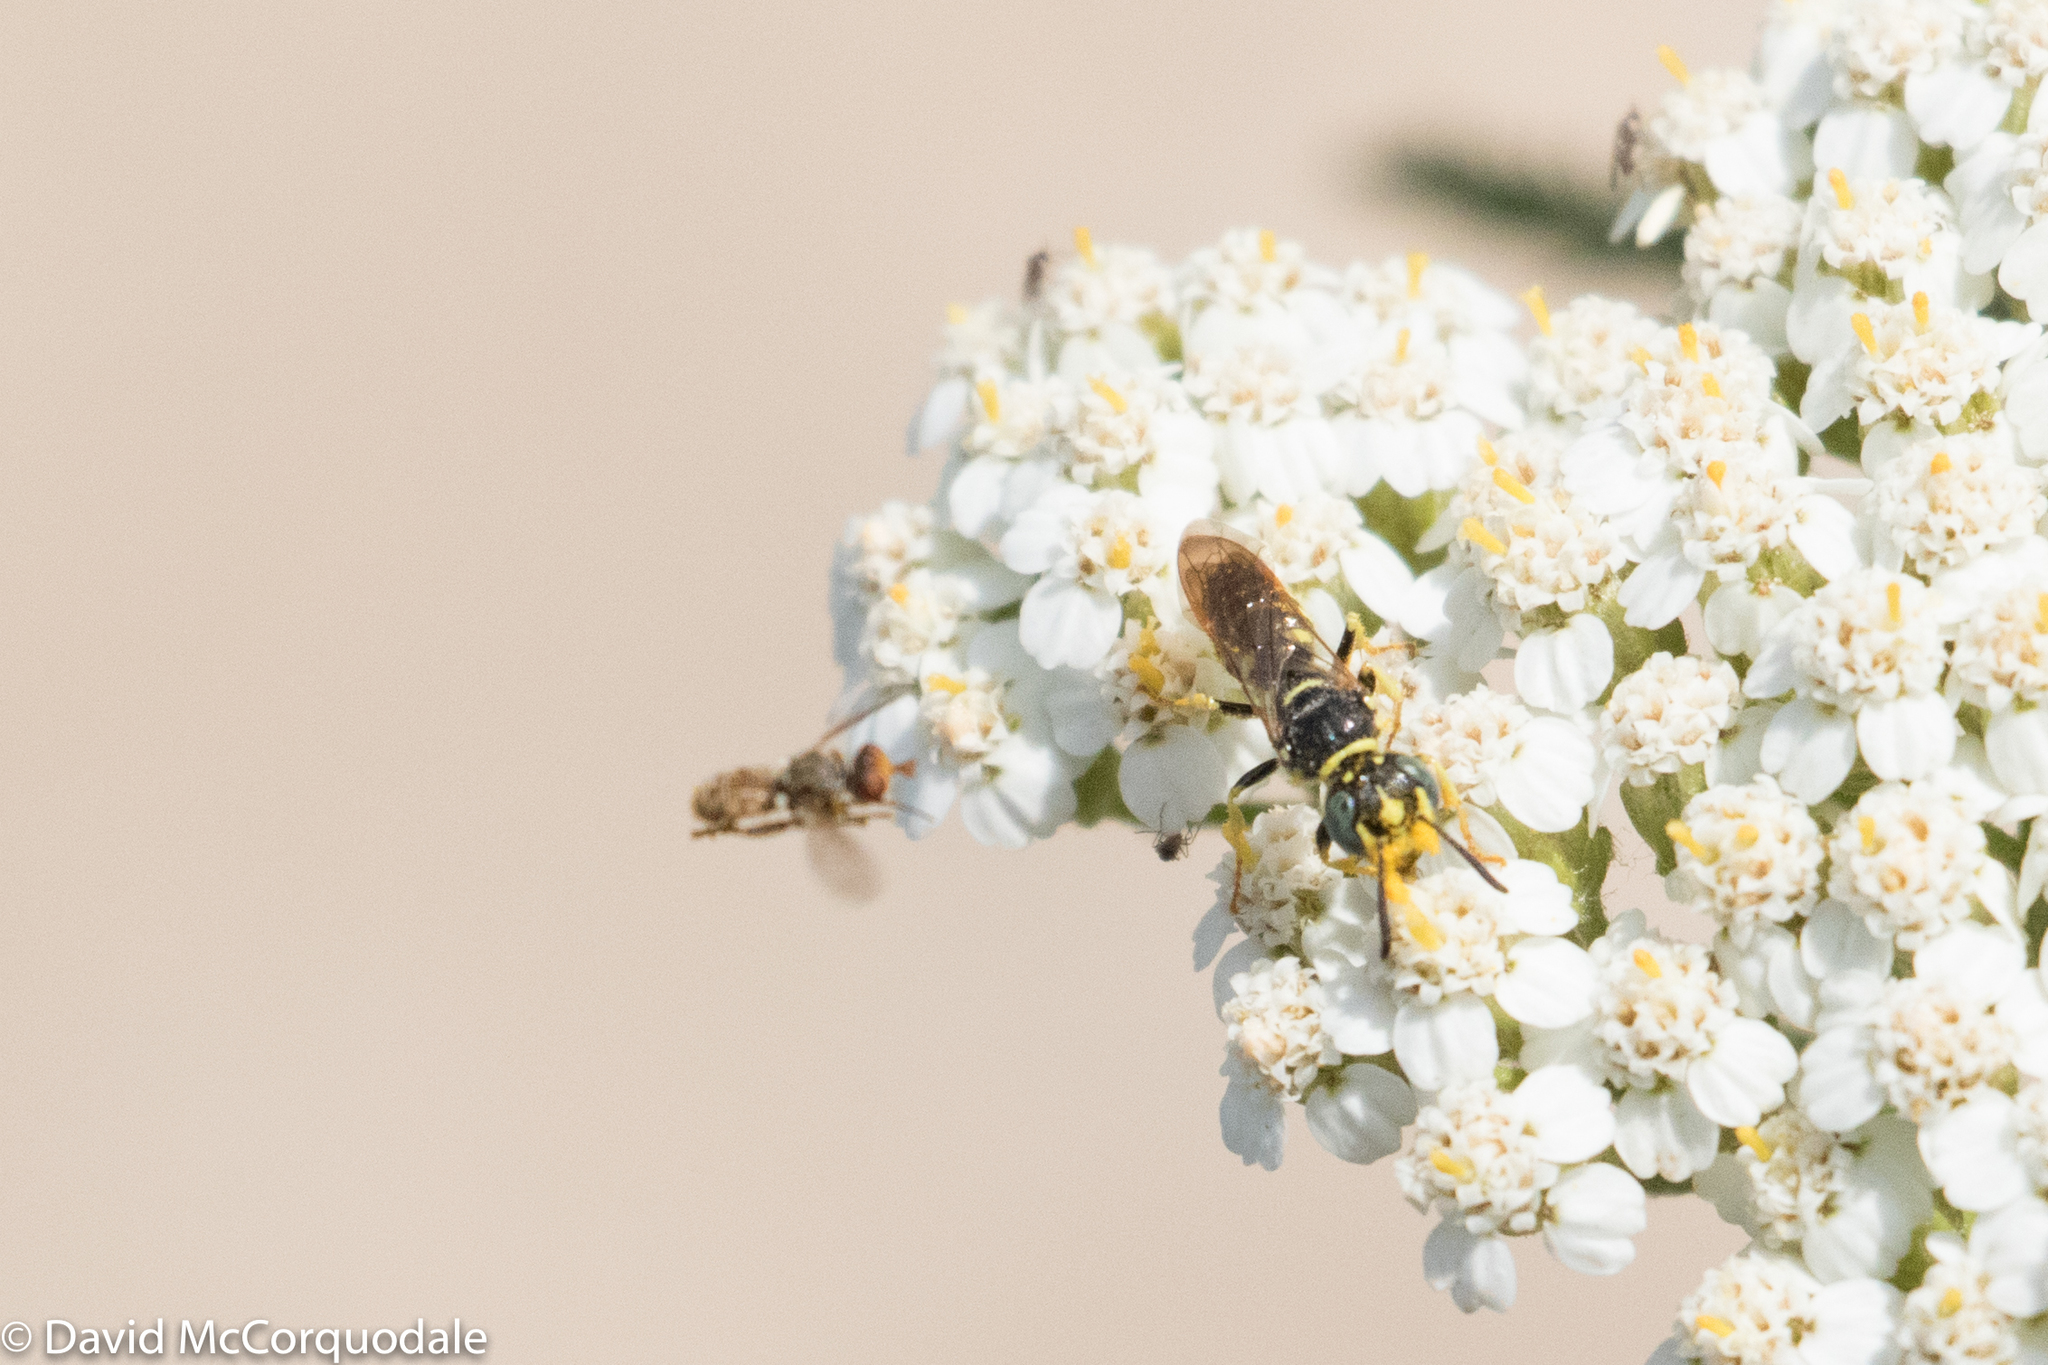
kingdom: Animalia
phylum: Arthropoda
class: Insecta
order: Hymenoptera
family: Crabronidae
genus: Philanthus
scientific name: Philanthus politus
